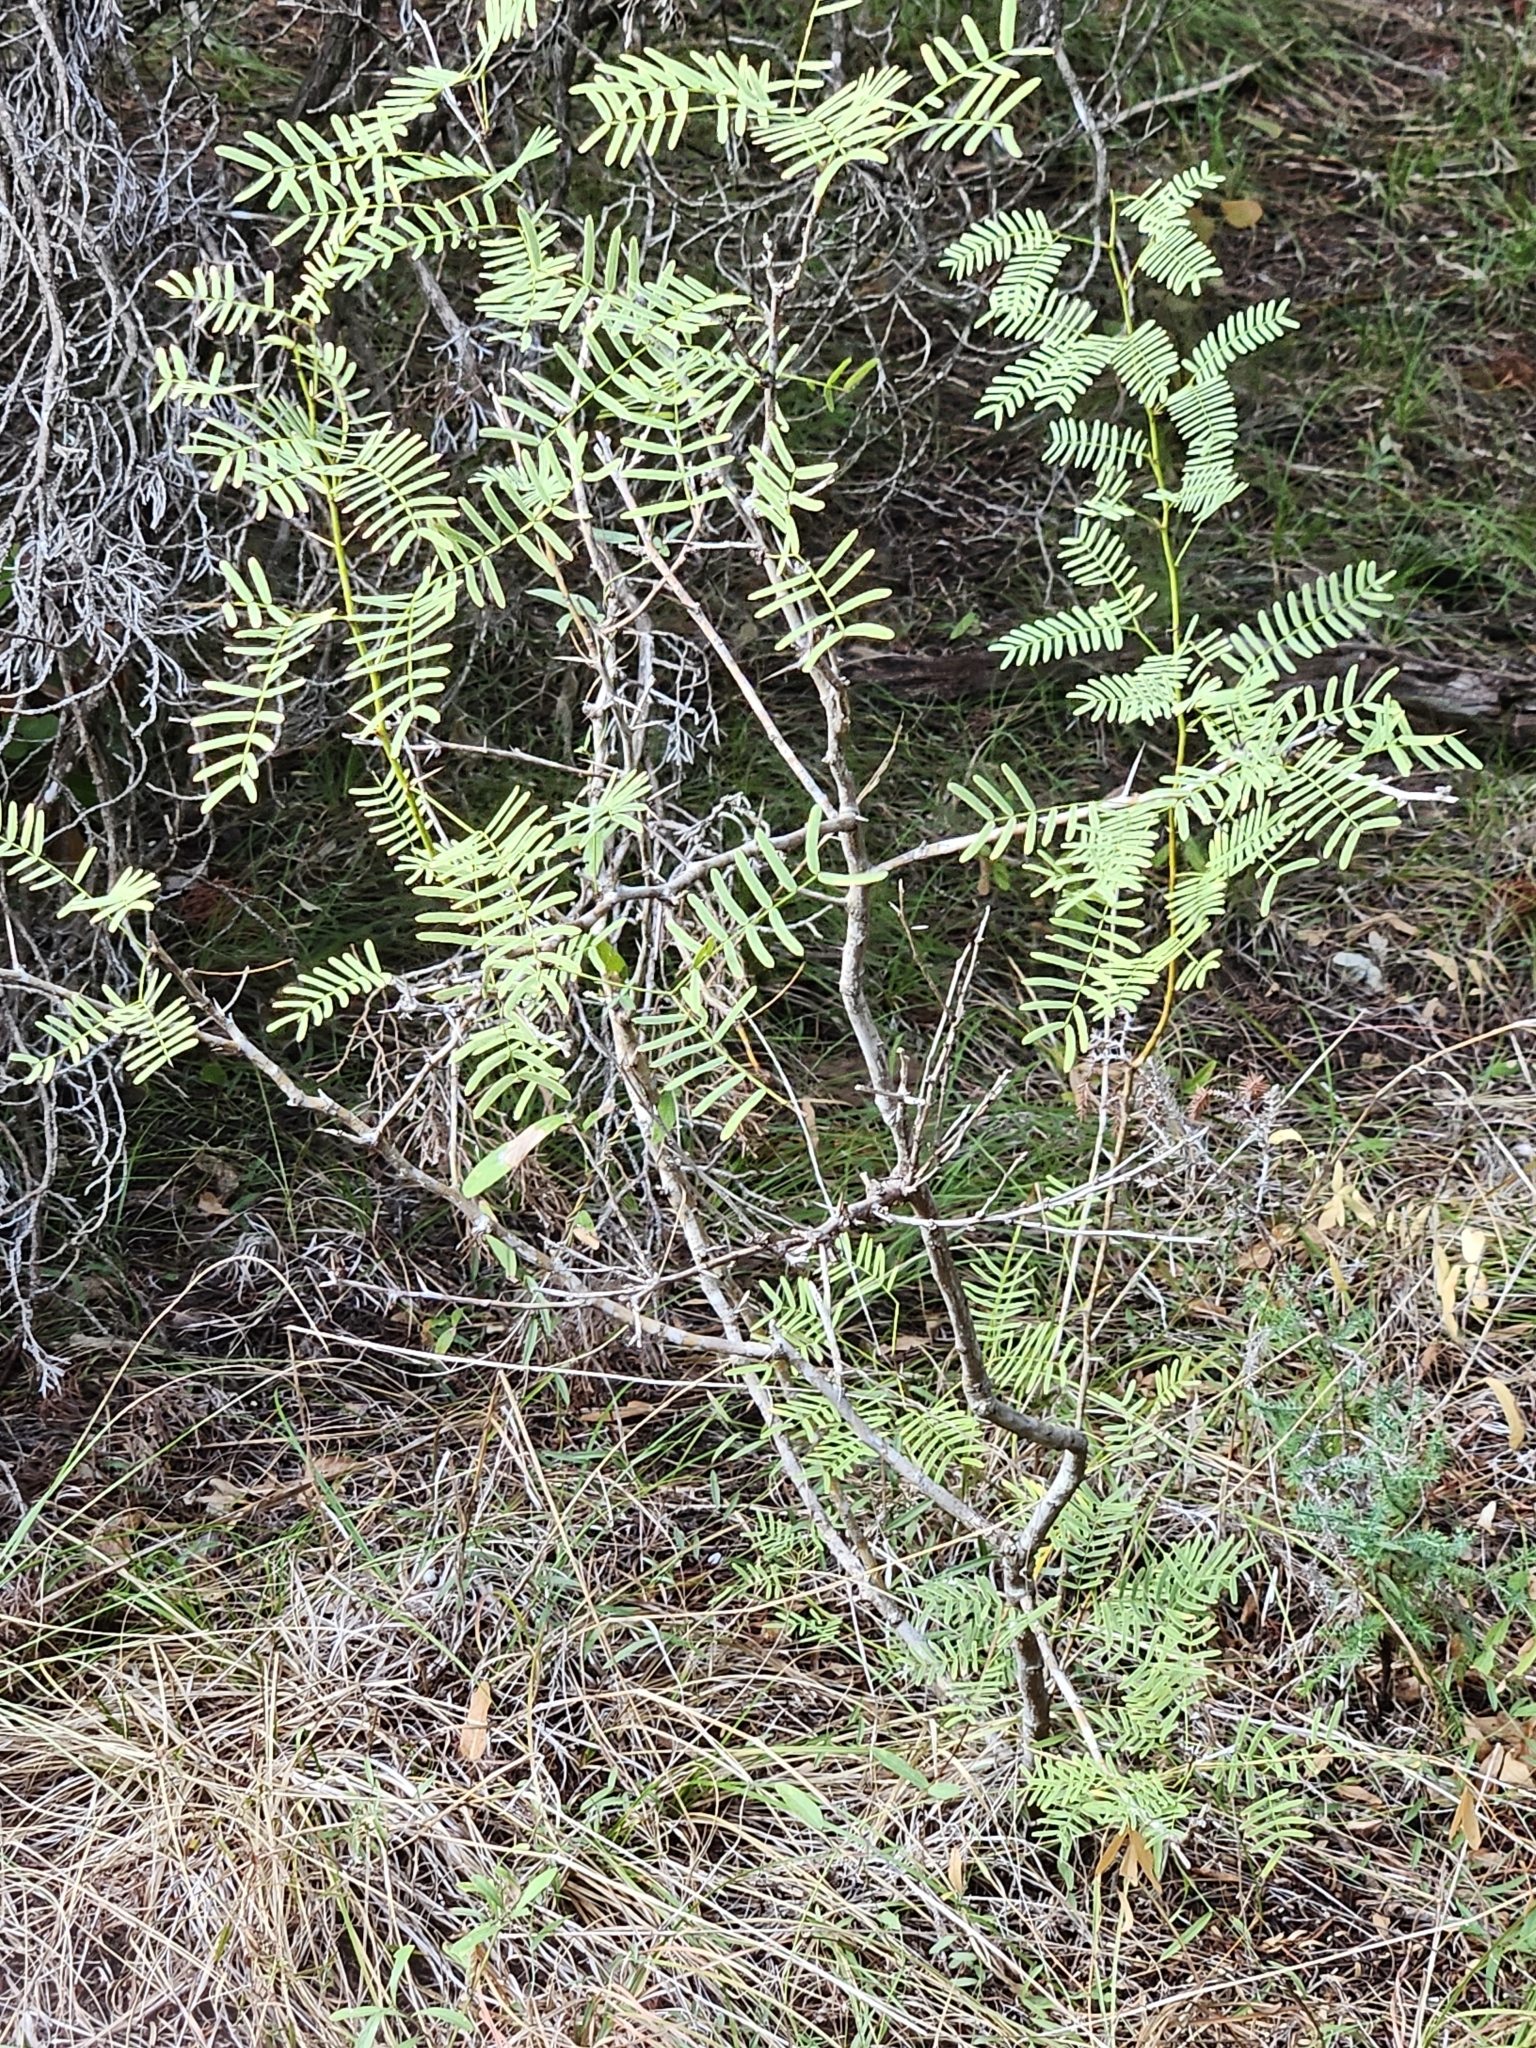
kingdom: Plantae
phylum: Tracheophyta
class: Magnoliopsida
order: Fabales
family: Fabaceae
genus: Prosopis
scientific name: Prosopis glandulosa
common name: Honey mesquite
